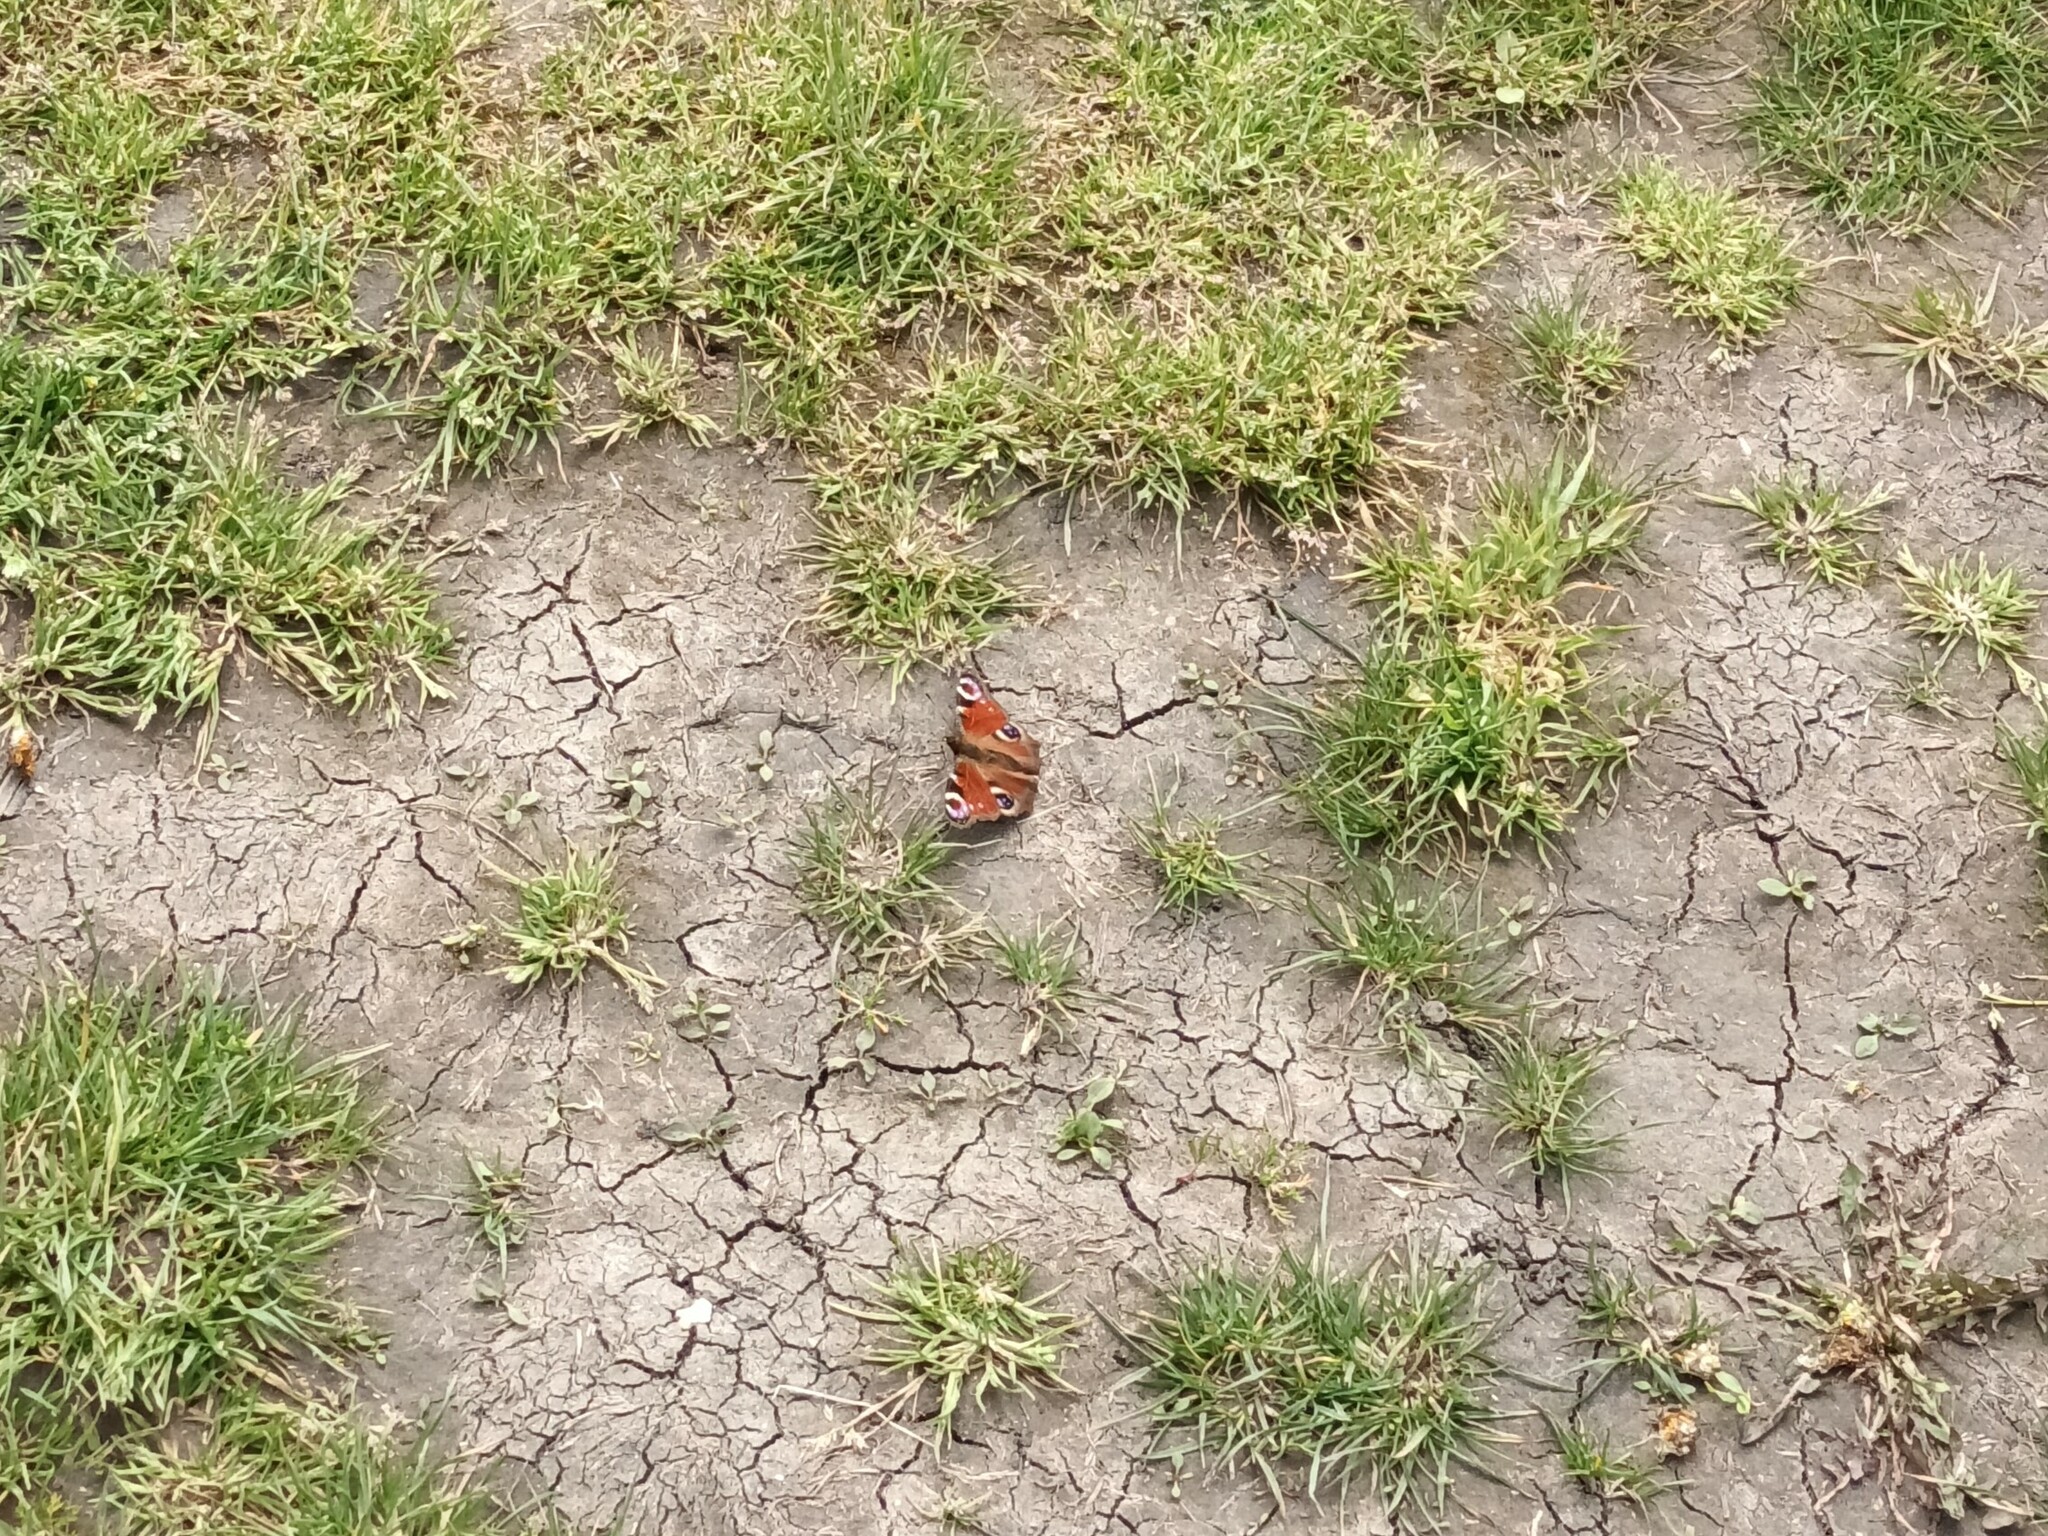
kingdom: Animalia
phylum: Arthropoda
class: Insecta
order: Lepidoptera
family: Nymphalidae
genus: Aglais
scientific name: Aglais io
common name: Peacock
